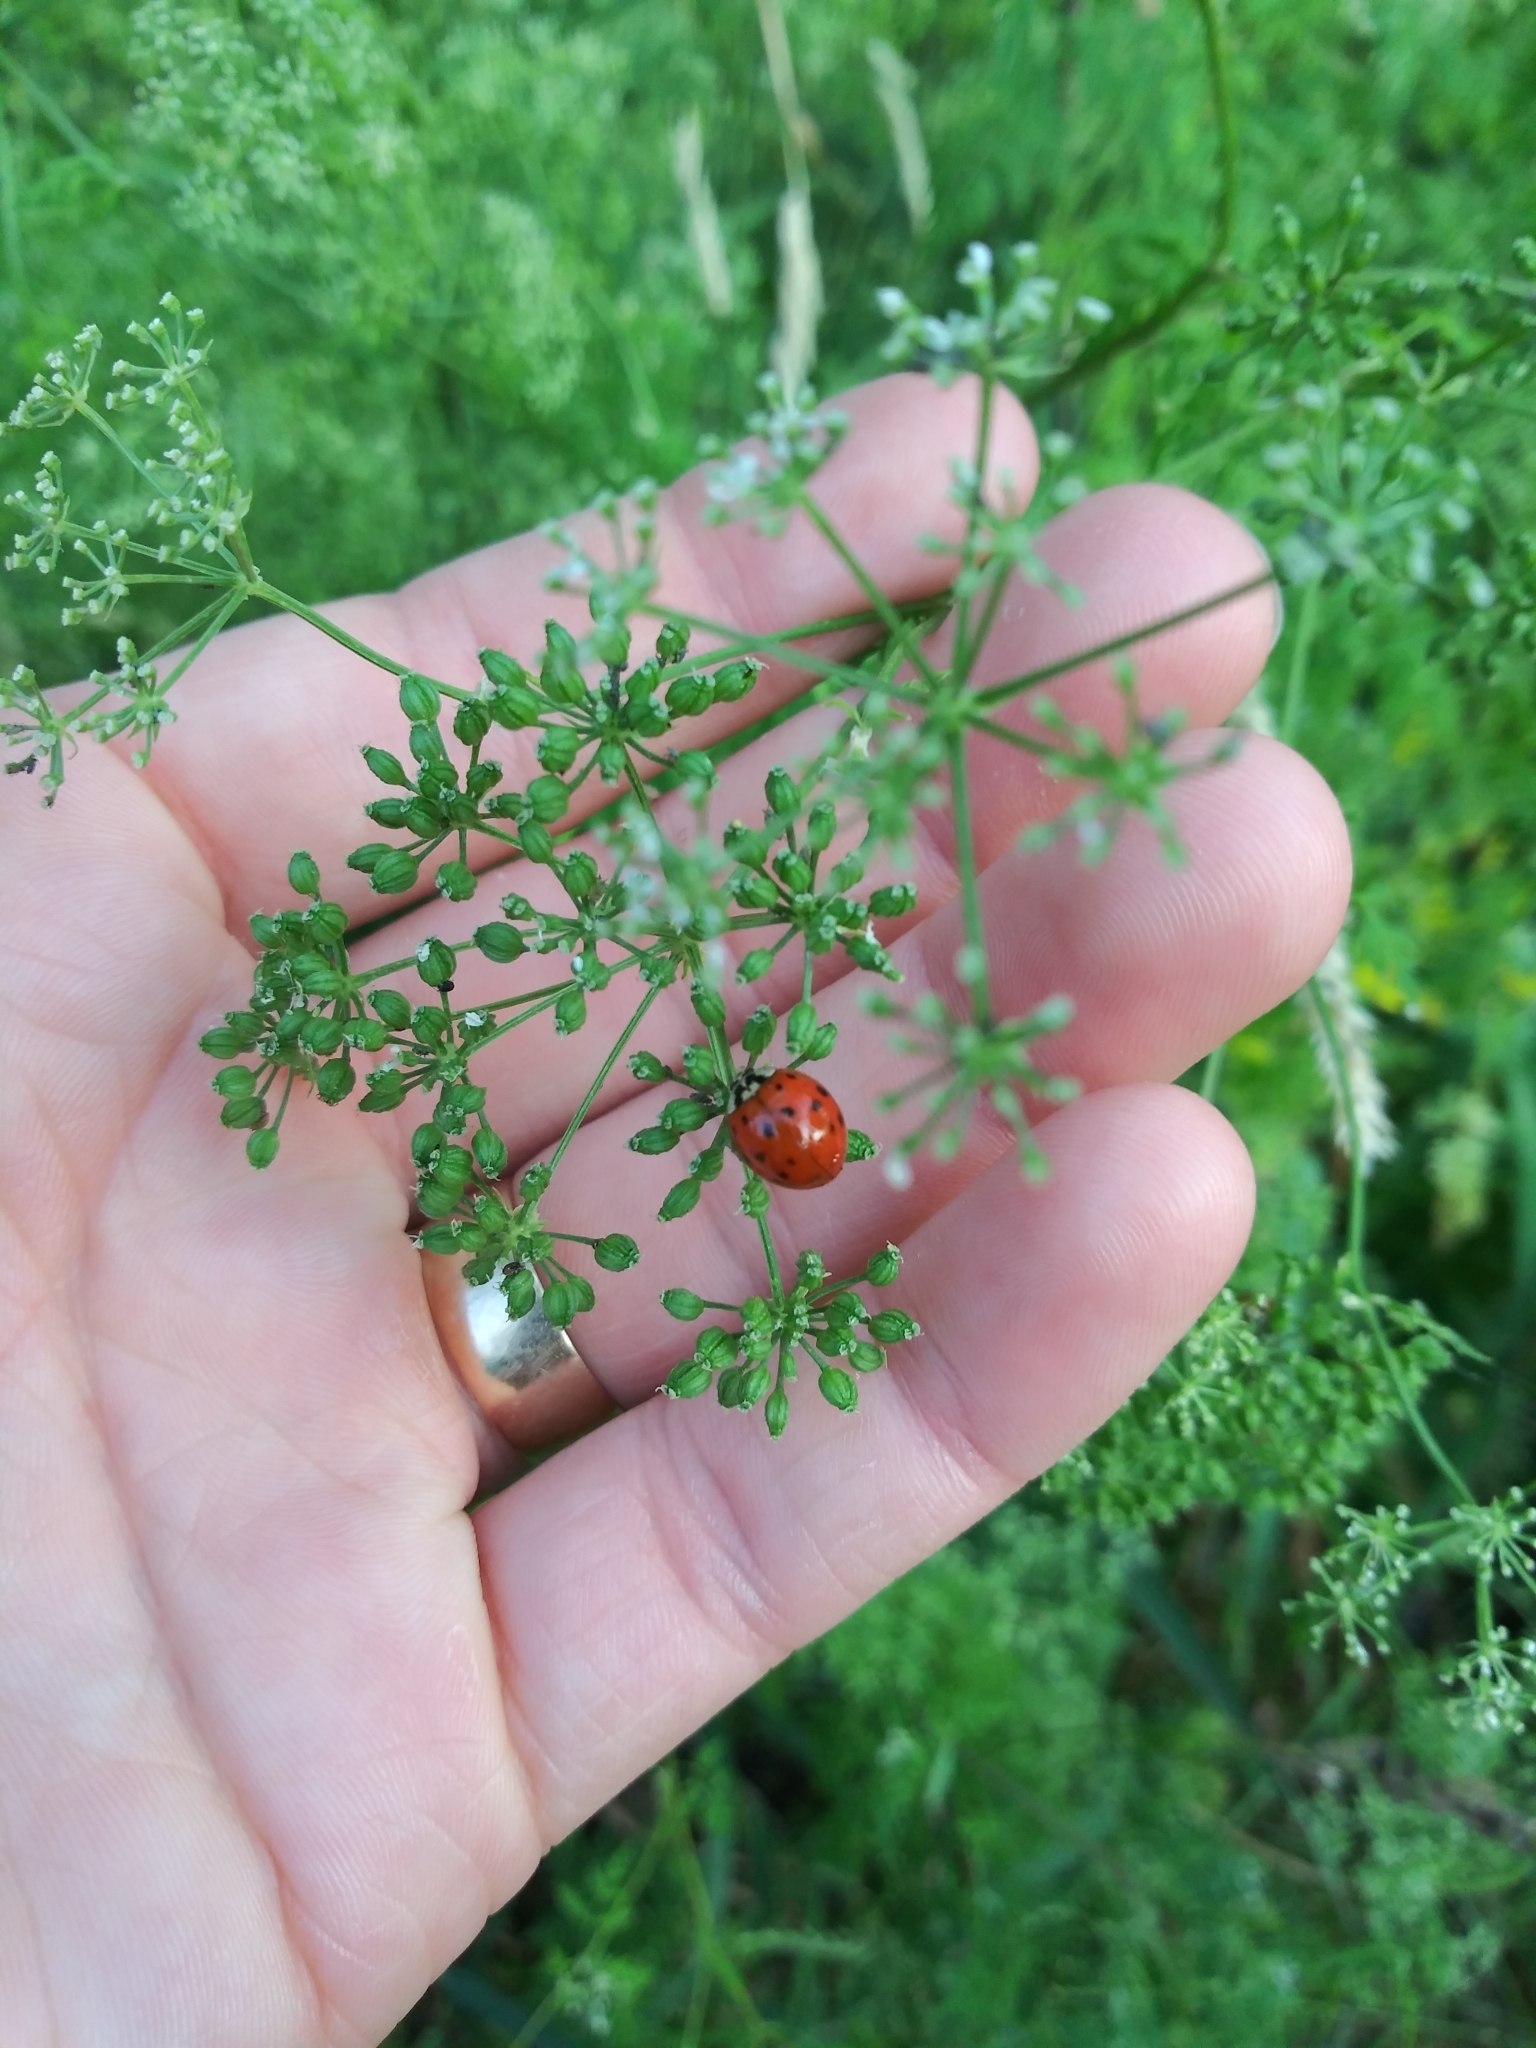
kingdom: Animalia
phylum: Arthropoda
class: Insecta
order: Coleoptera
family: Coccinellidae
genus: Harmonia
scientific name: Harmonia axyridis
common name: Harlequin ladybird
